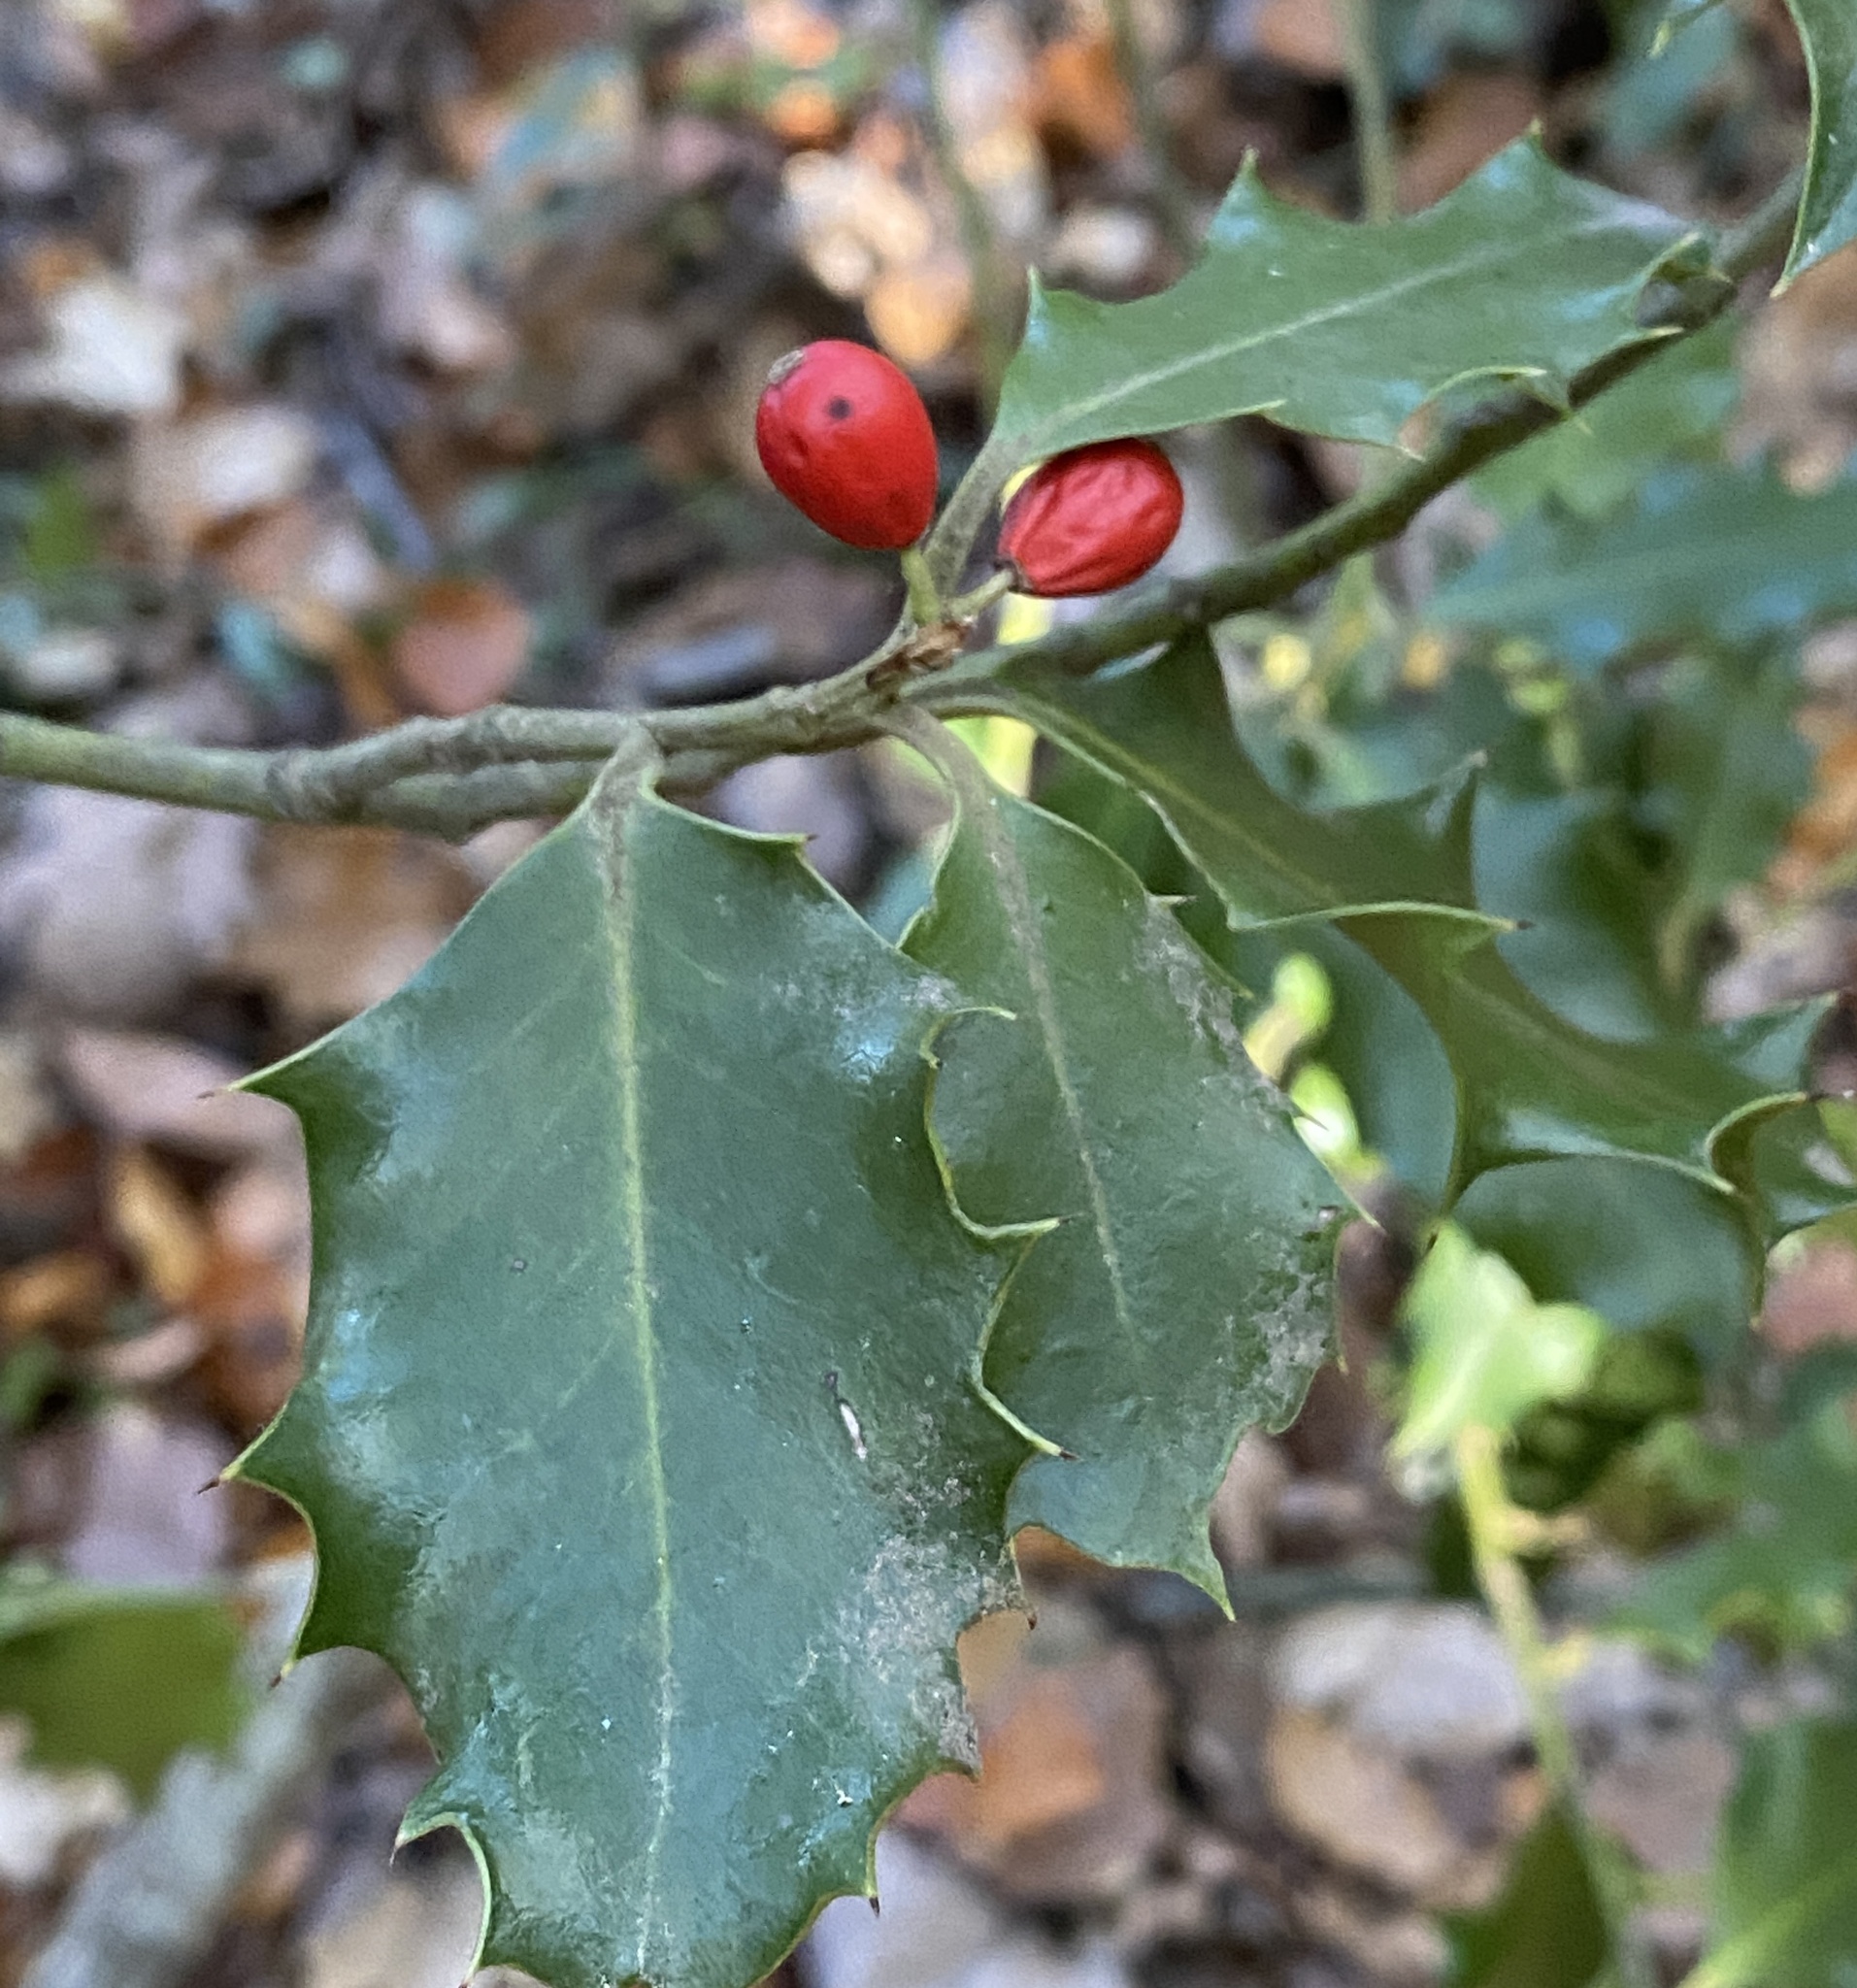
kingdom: Plantae
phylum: Tracheophyta
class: Magnoliopsida
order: Aquifoliales
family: Aquifoliaceae
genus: Ilex
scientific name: Ilex aquifolium
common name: English holly
